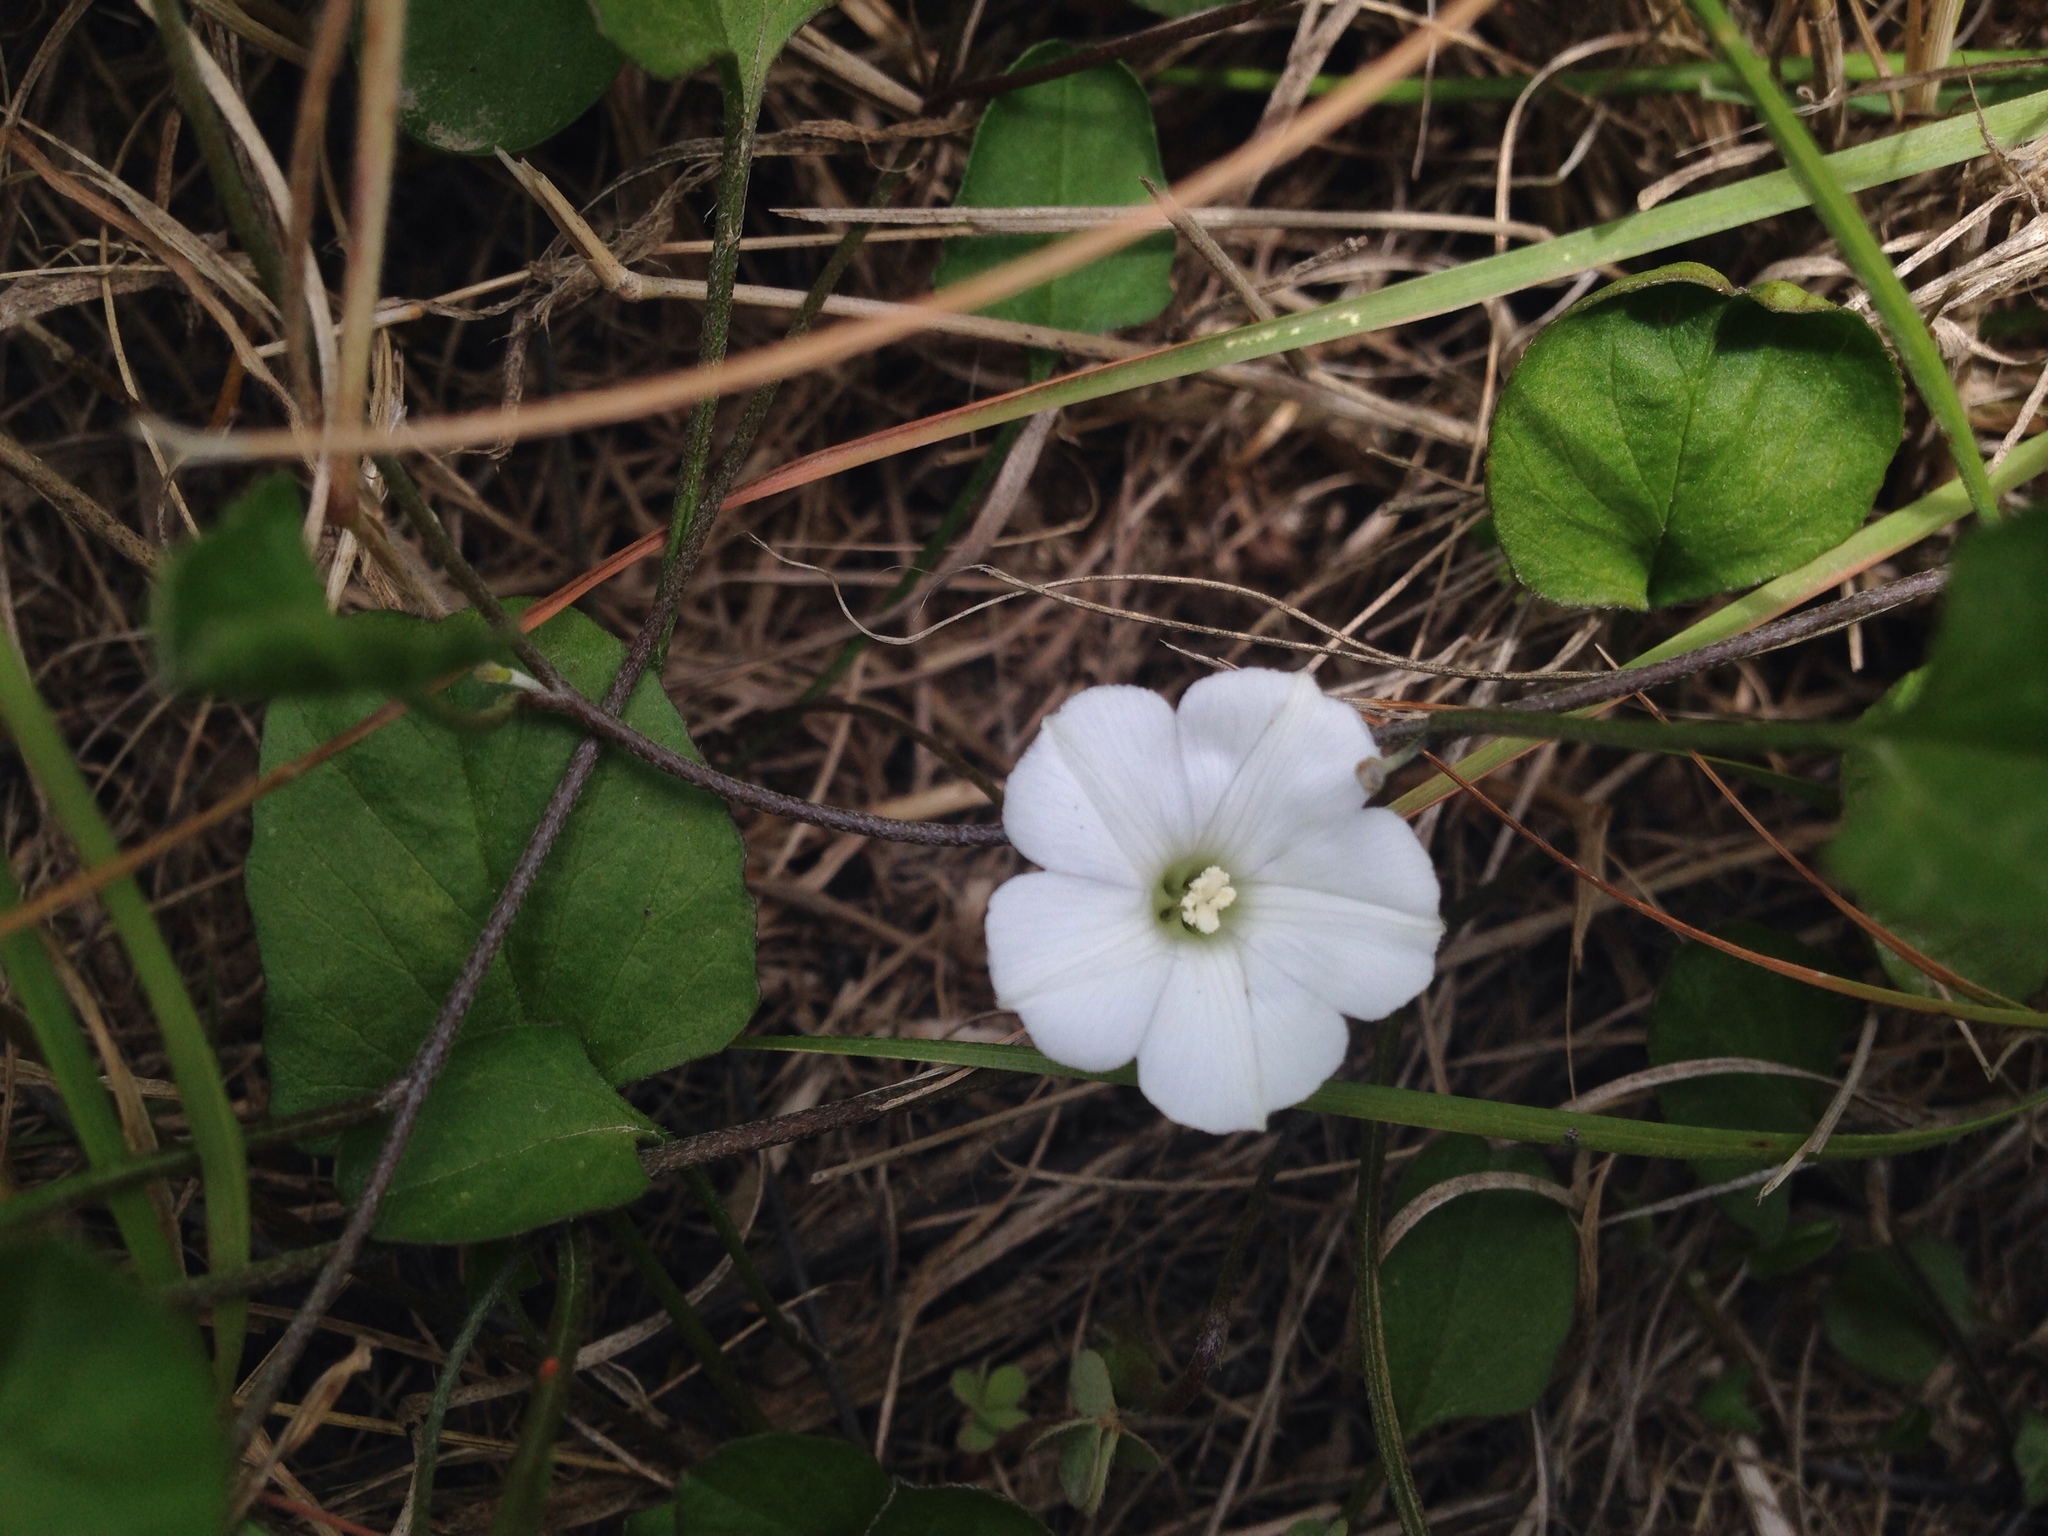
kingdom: Plantae
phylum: Tracheophyta
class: Magnoliopsida
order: Solanales
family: Convolvulaceae
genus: Convolvulus
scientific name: Convolvulus waitaha
